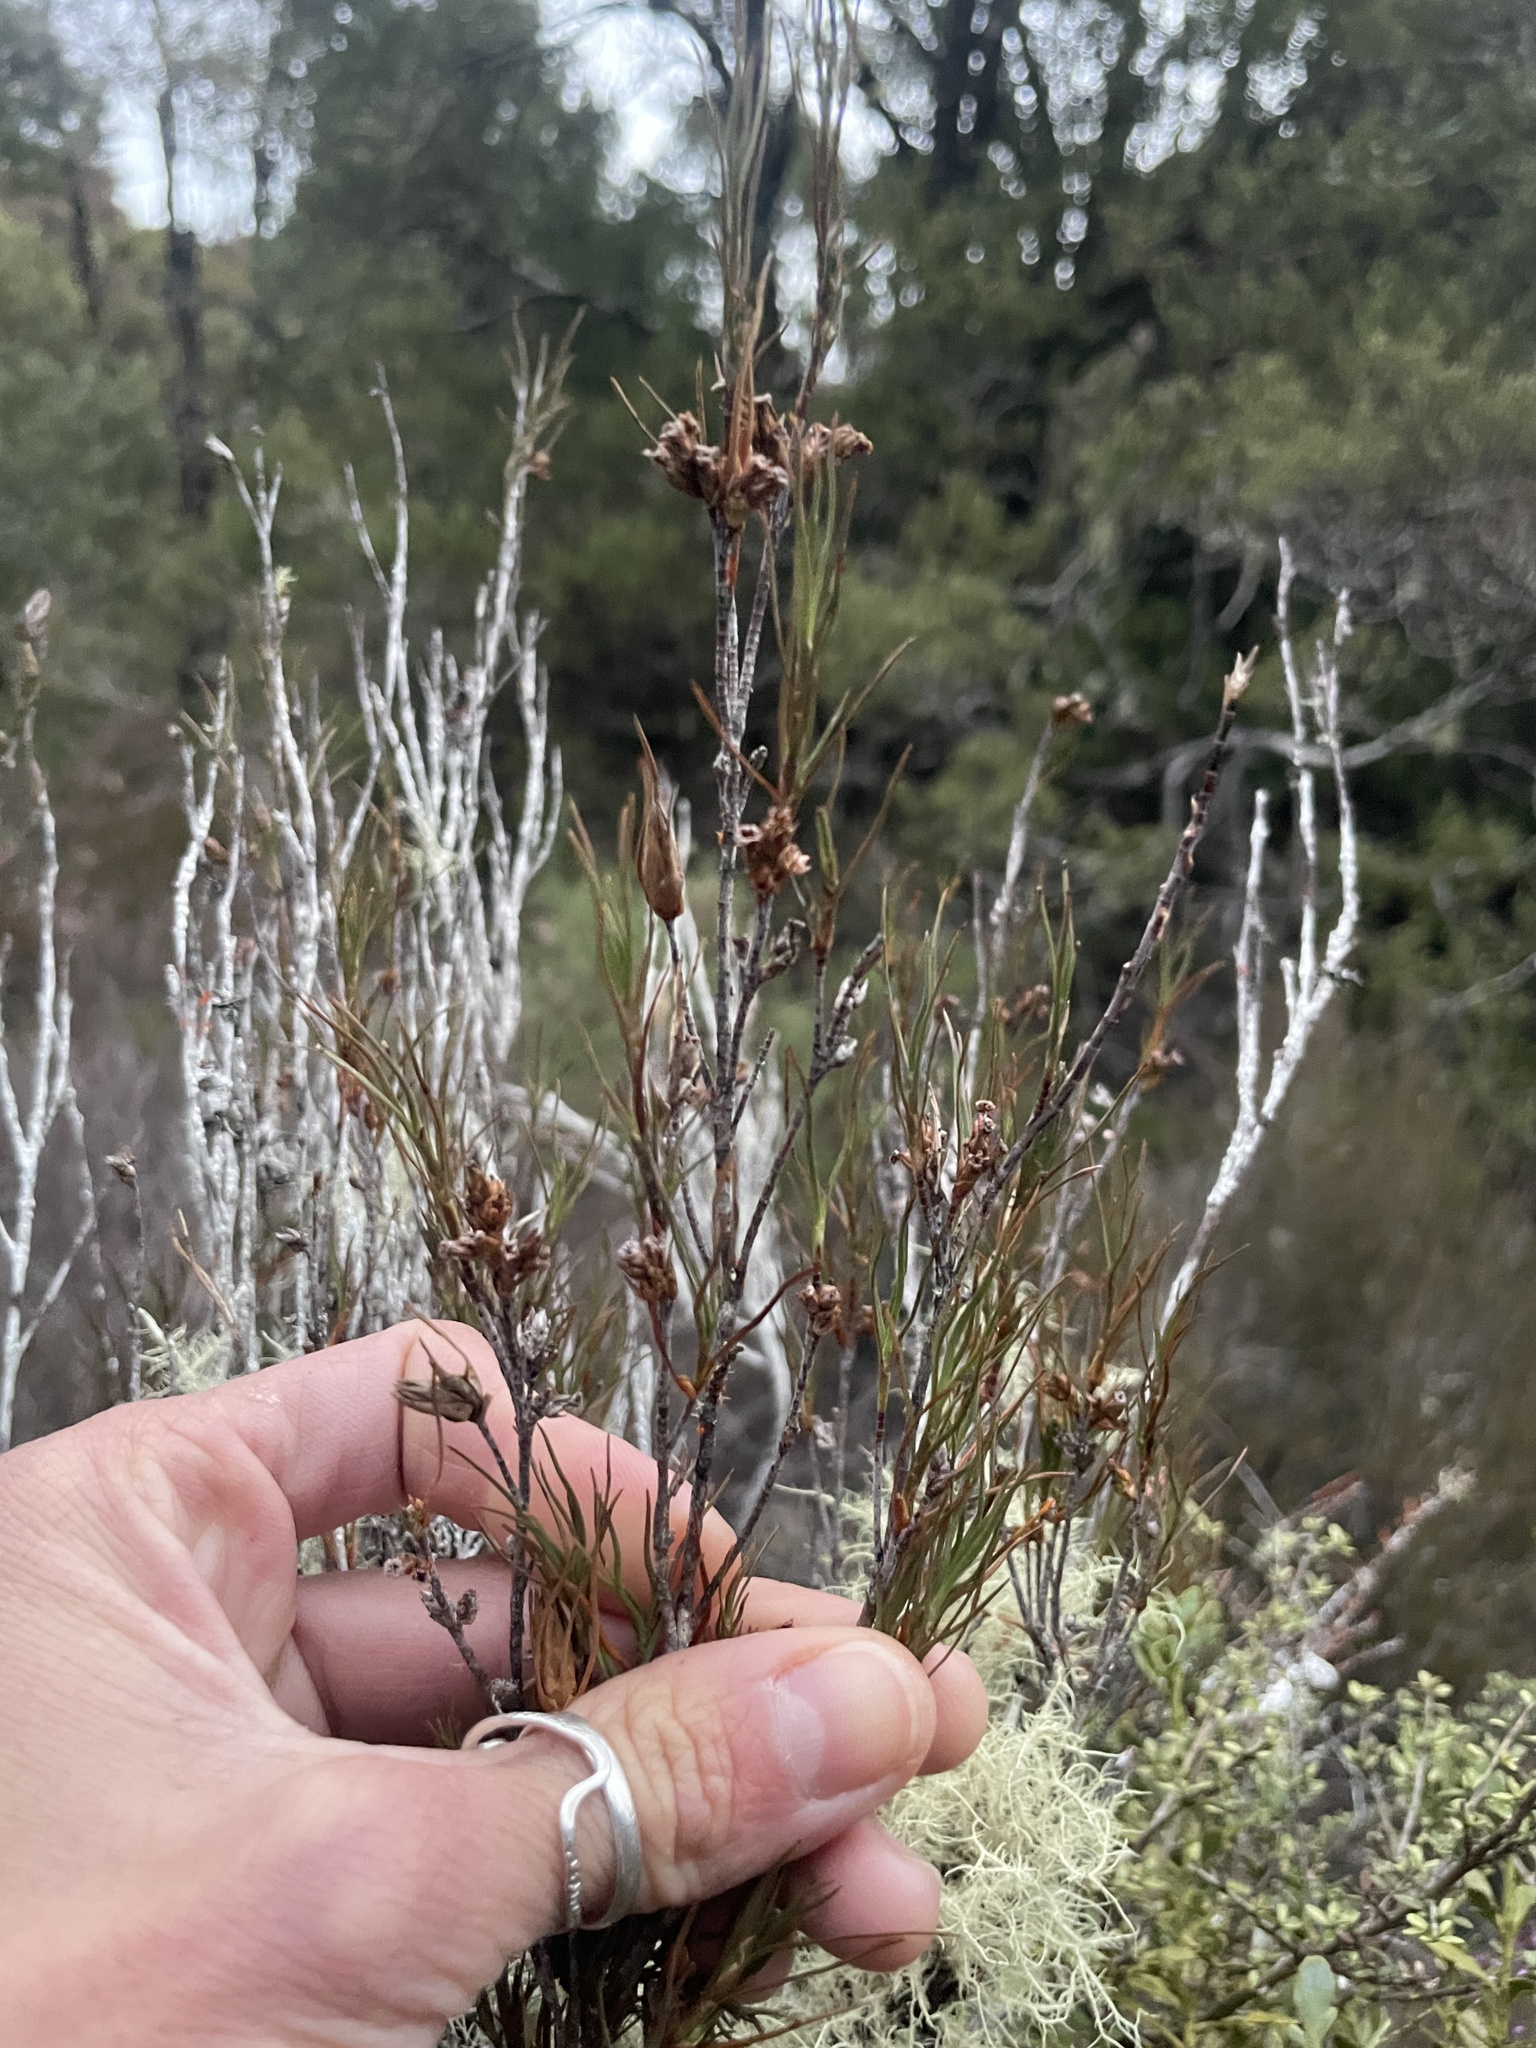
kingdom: Plantae
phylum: Tracheophyta
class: Magnoliopsida
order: Ericales
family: Ericaceae
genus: Dracophyllum
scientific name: Dracophyllum subulatum
